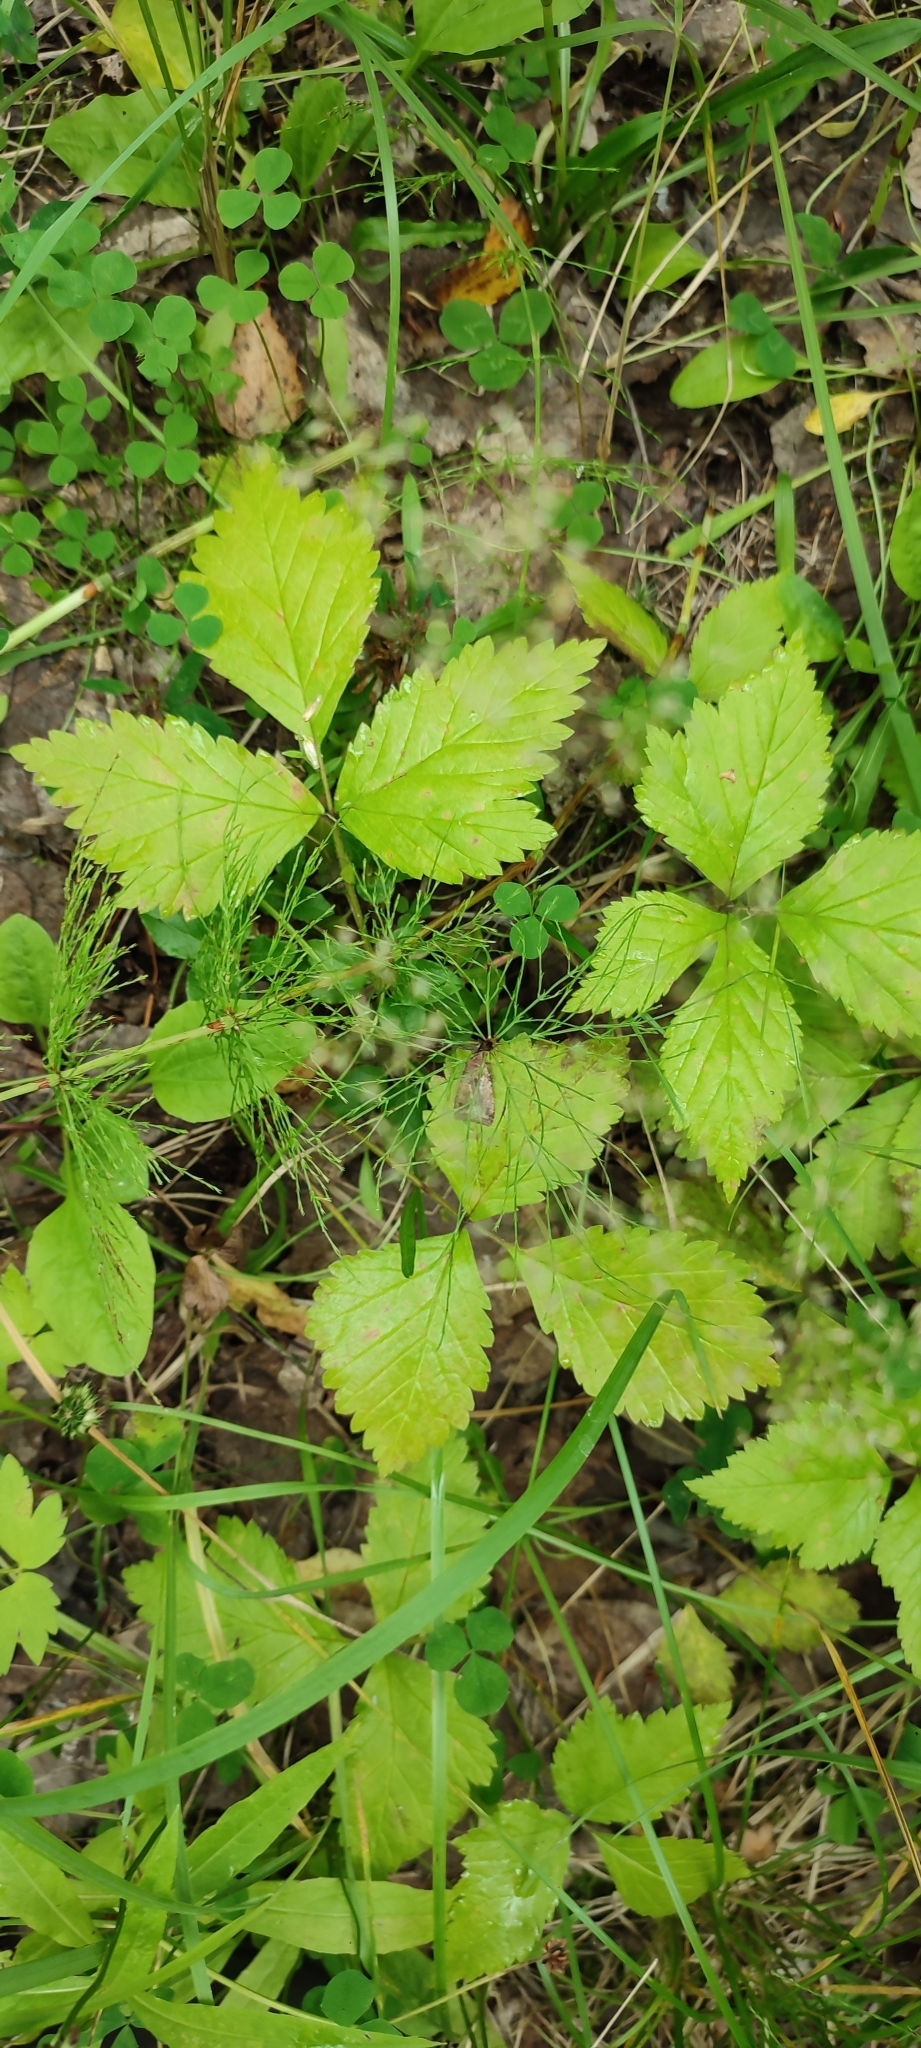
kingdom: Plantae
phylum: Tracheophyta
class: Magnoliopsida
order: Rosales
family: Rosaceae
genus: Rubus
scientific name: Rubus saxatilis
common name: Stone bramble
